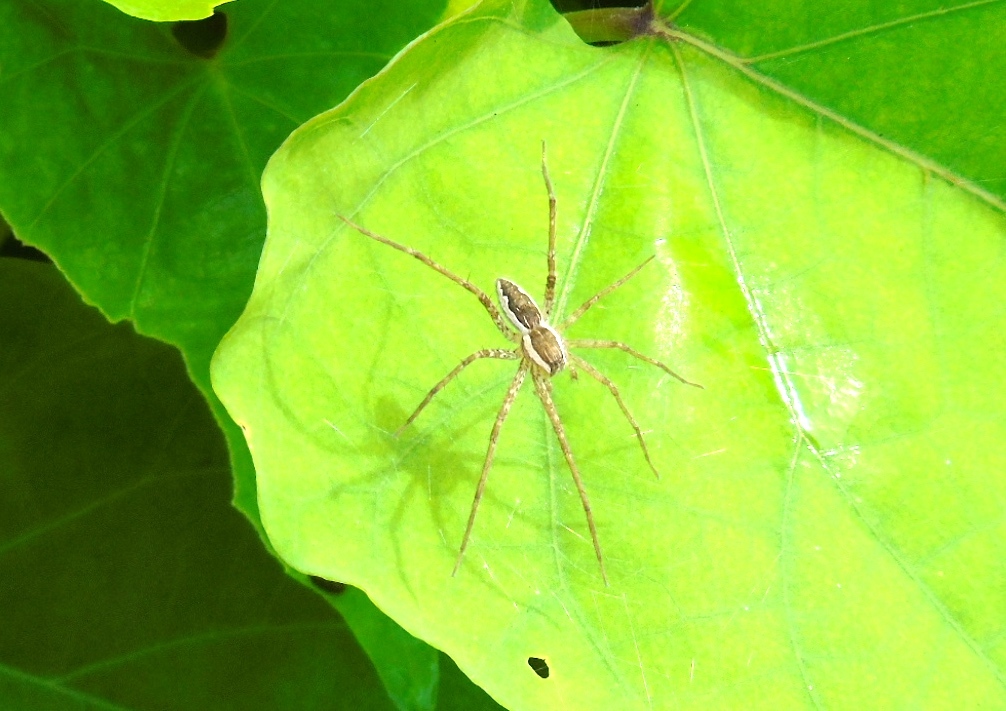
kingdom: Animalia
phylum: Arthropoda
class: Arachnida
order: Araneae
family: Pisauridae
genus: Tinus
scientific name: Tinus
